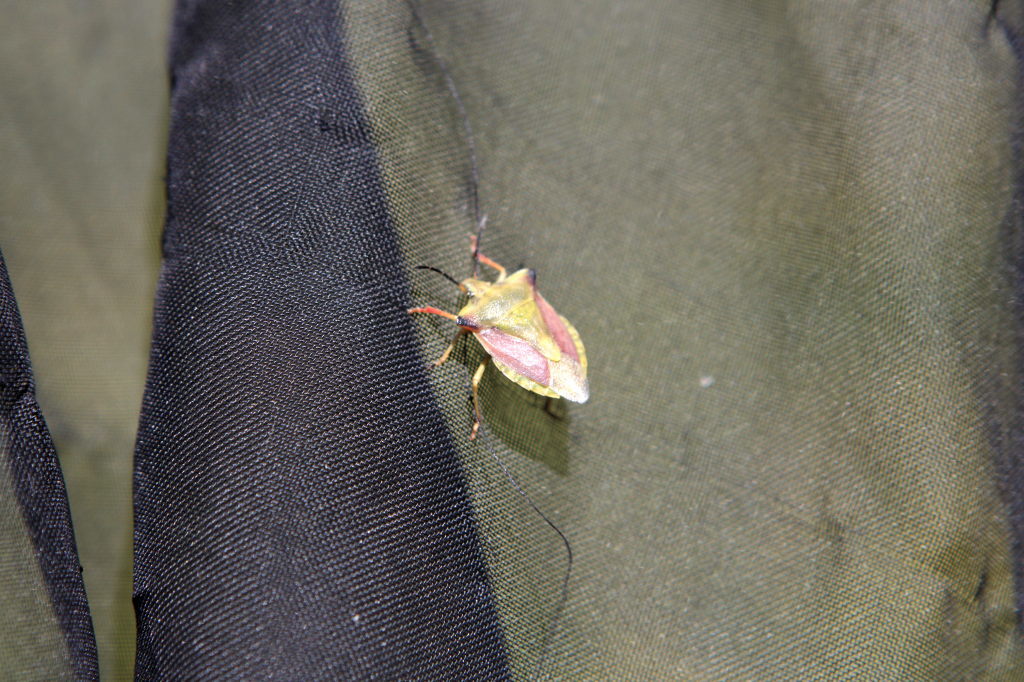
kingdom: Animalia
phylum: Arthropoda
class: Insecta
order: Hemiptera
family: Pentatomidae
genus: Carpocoris
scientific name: Carpocoris fuscispinus
